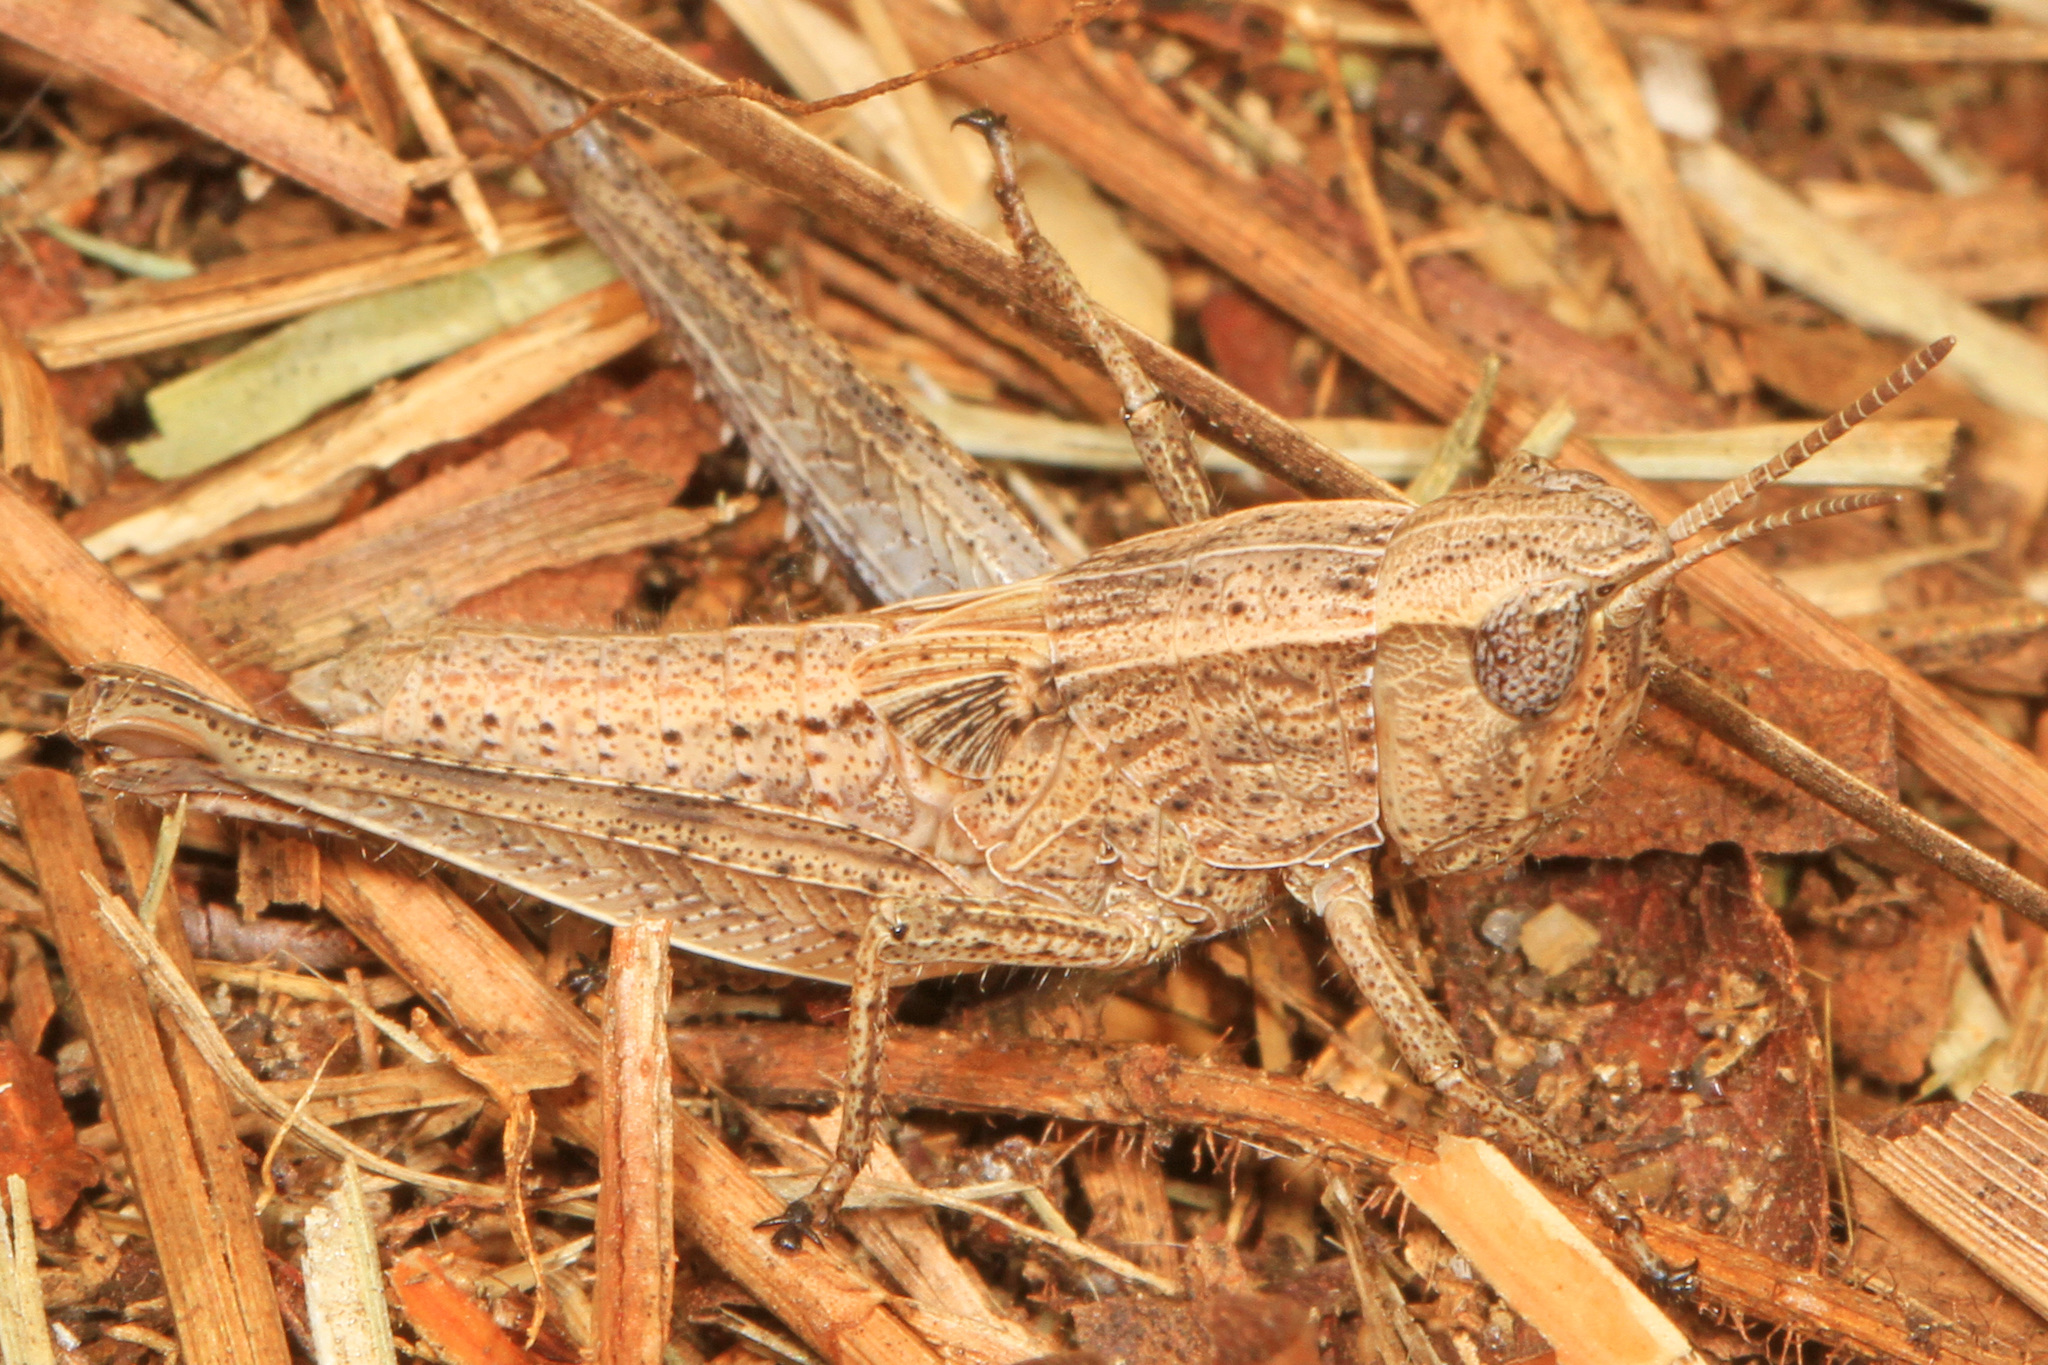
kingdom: Animalia
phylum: Arthropoda
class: Insecta
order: Orthoptera
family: Acrididae
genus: Dichromorpha
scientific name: Dichromorpha viridis
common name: Short-winged green grasshopper
